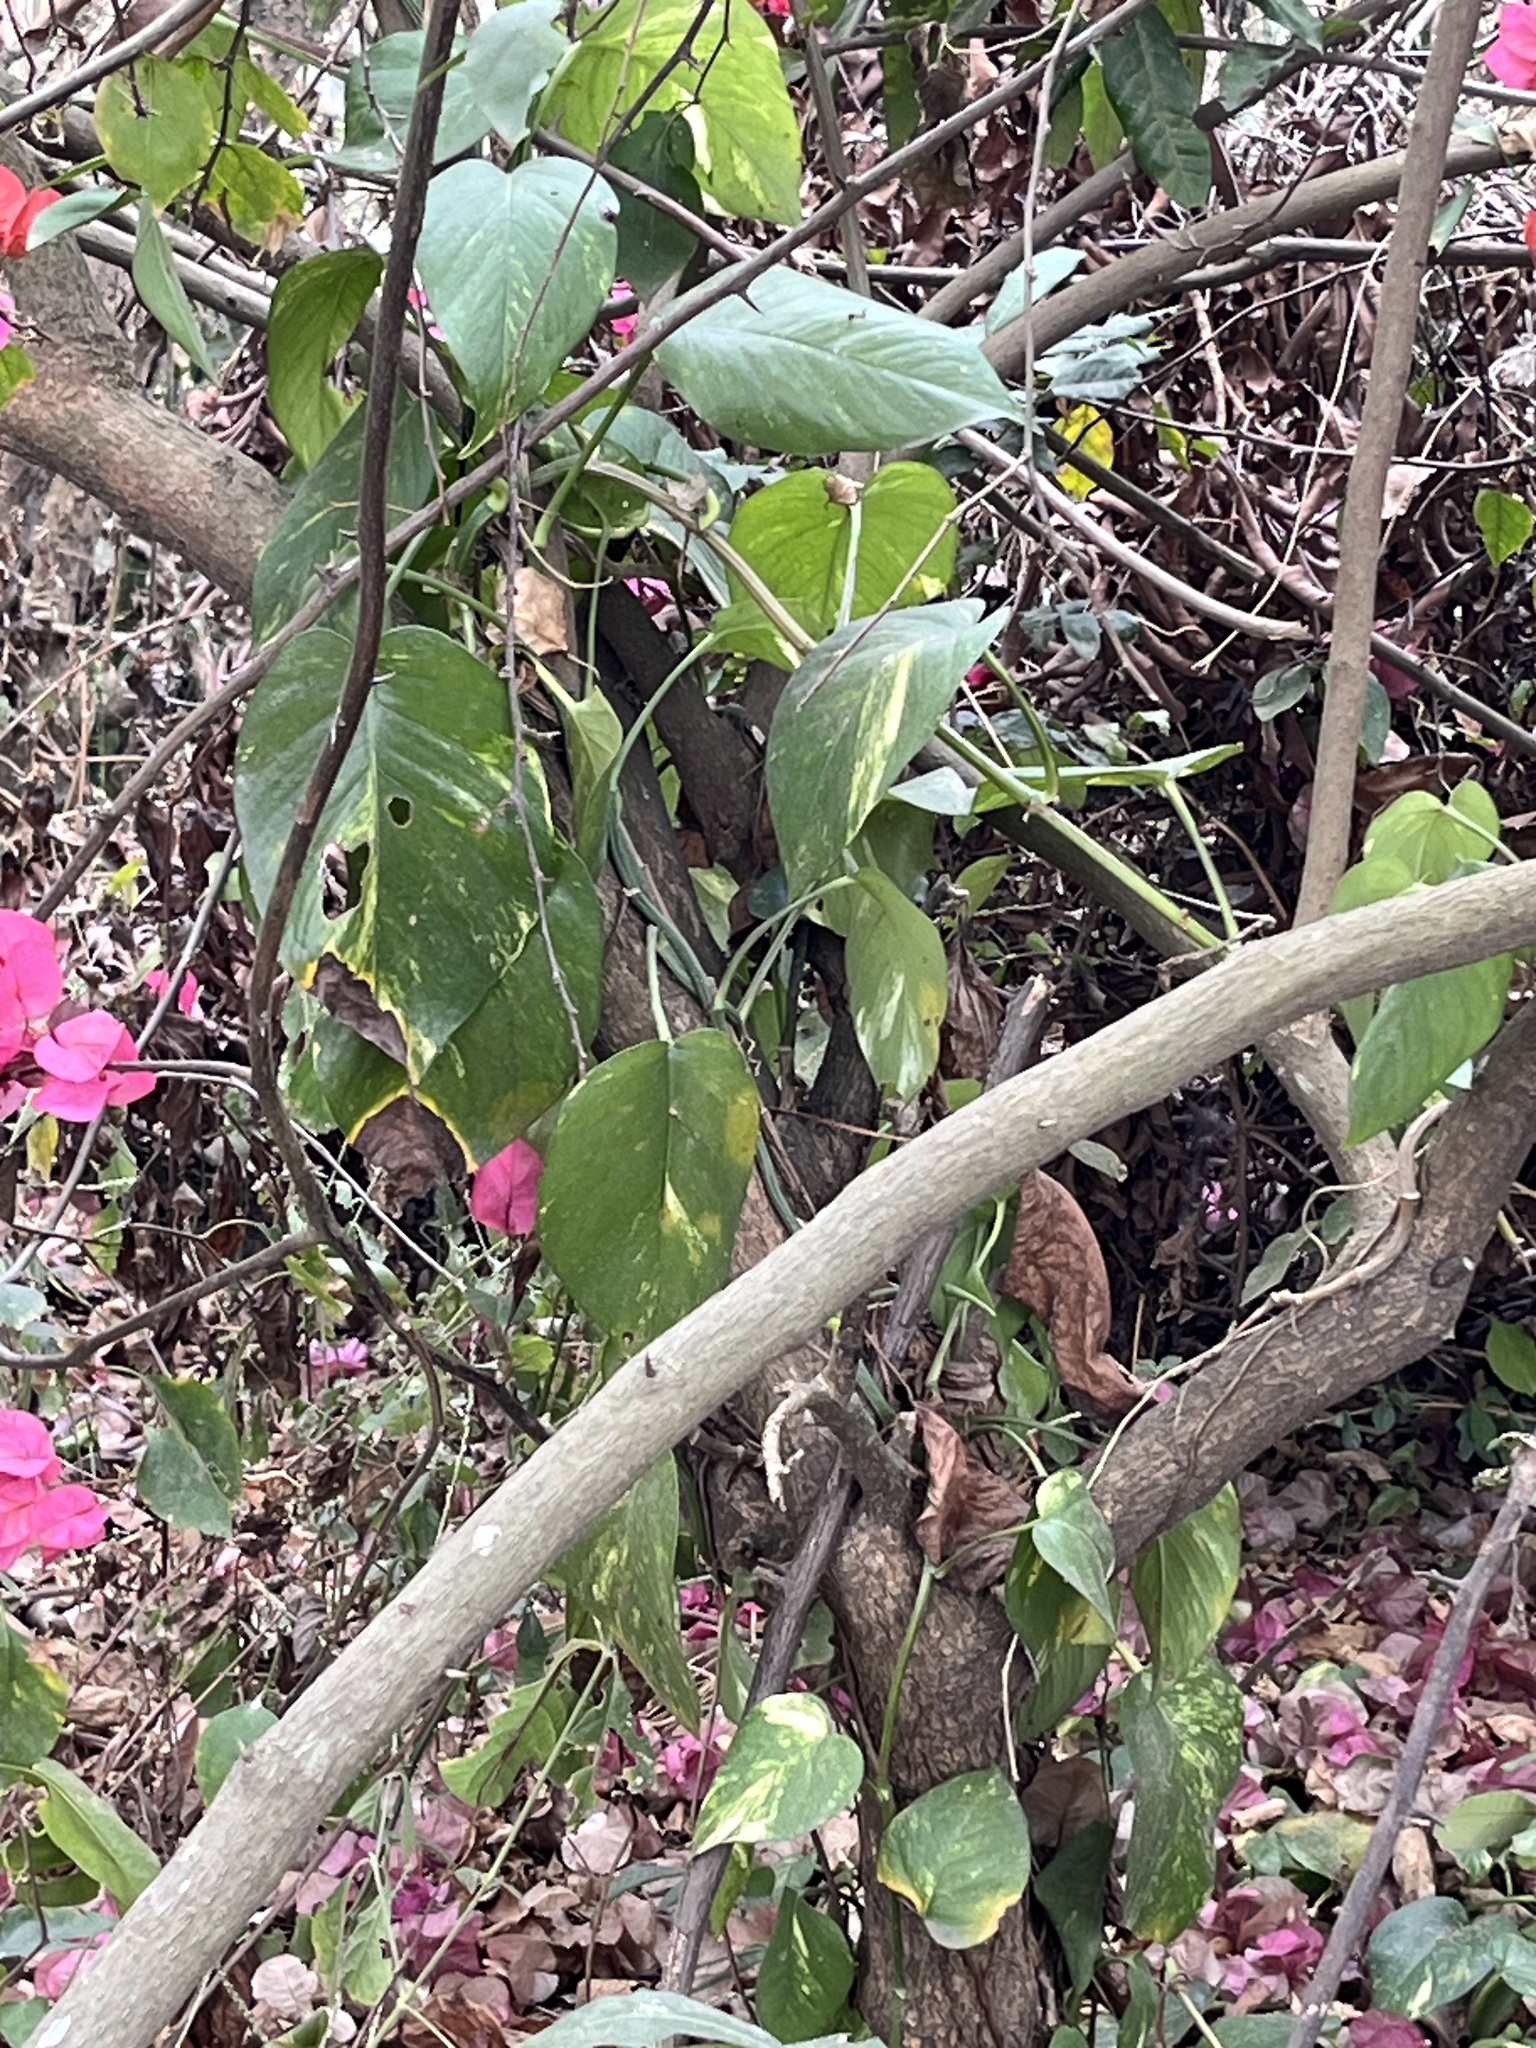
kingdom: Plantae
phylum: Tracheophyta
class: Liliopsida
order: Alismatales
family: Araceae
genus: Epipremnum
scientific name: Epipremnum aureum
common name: Golden hunter's-robe
